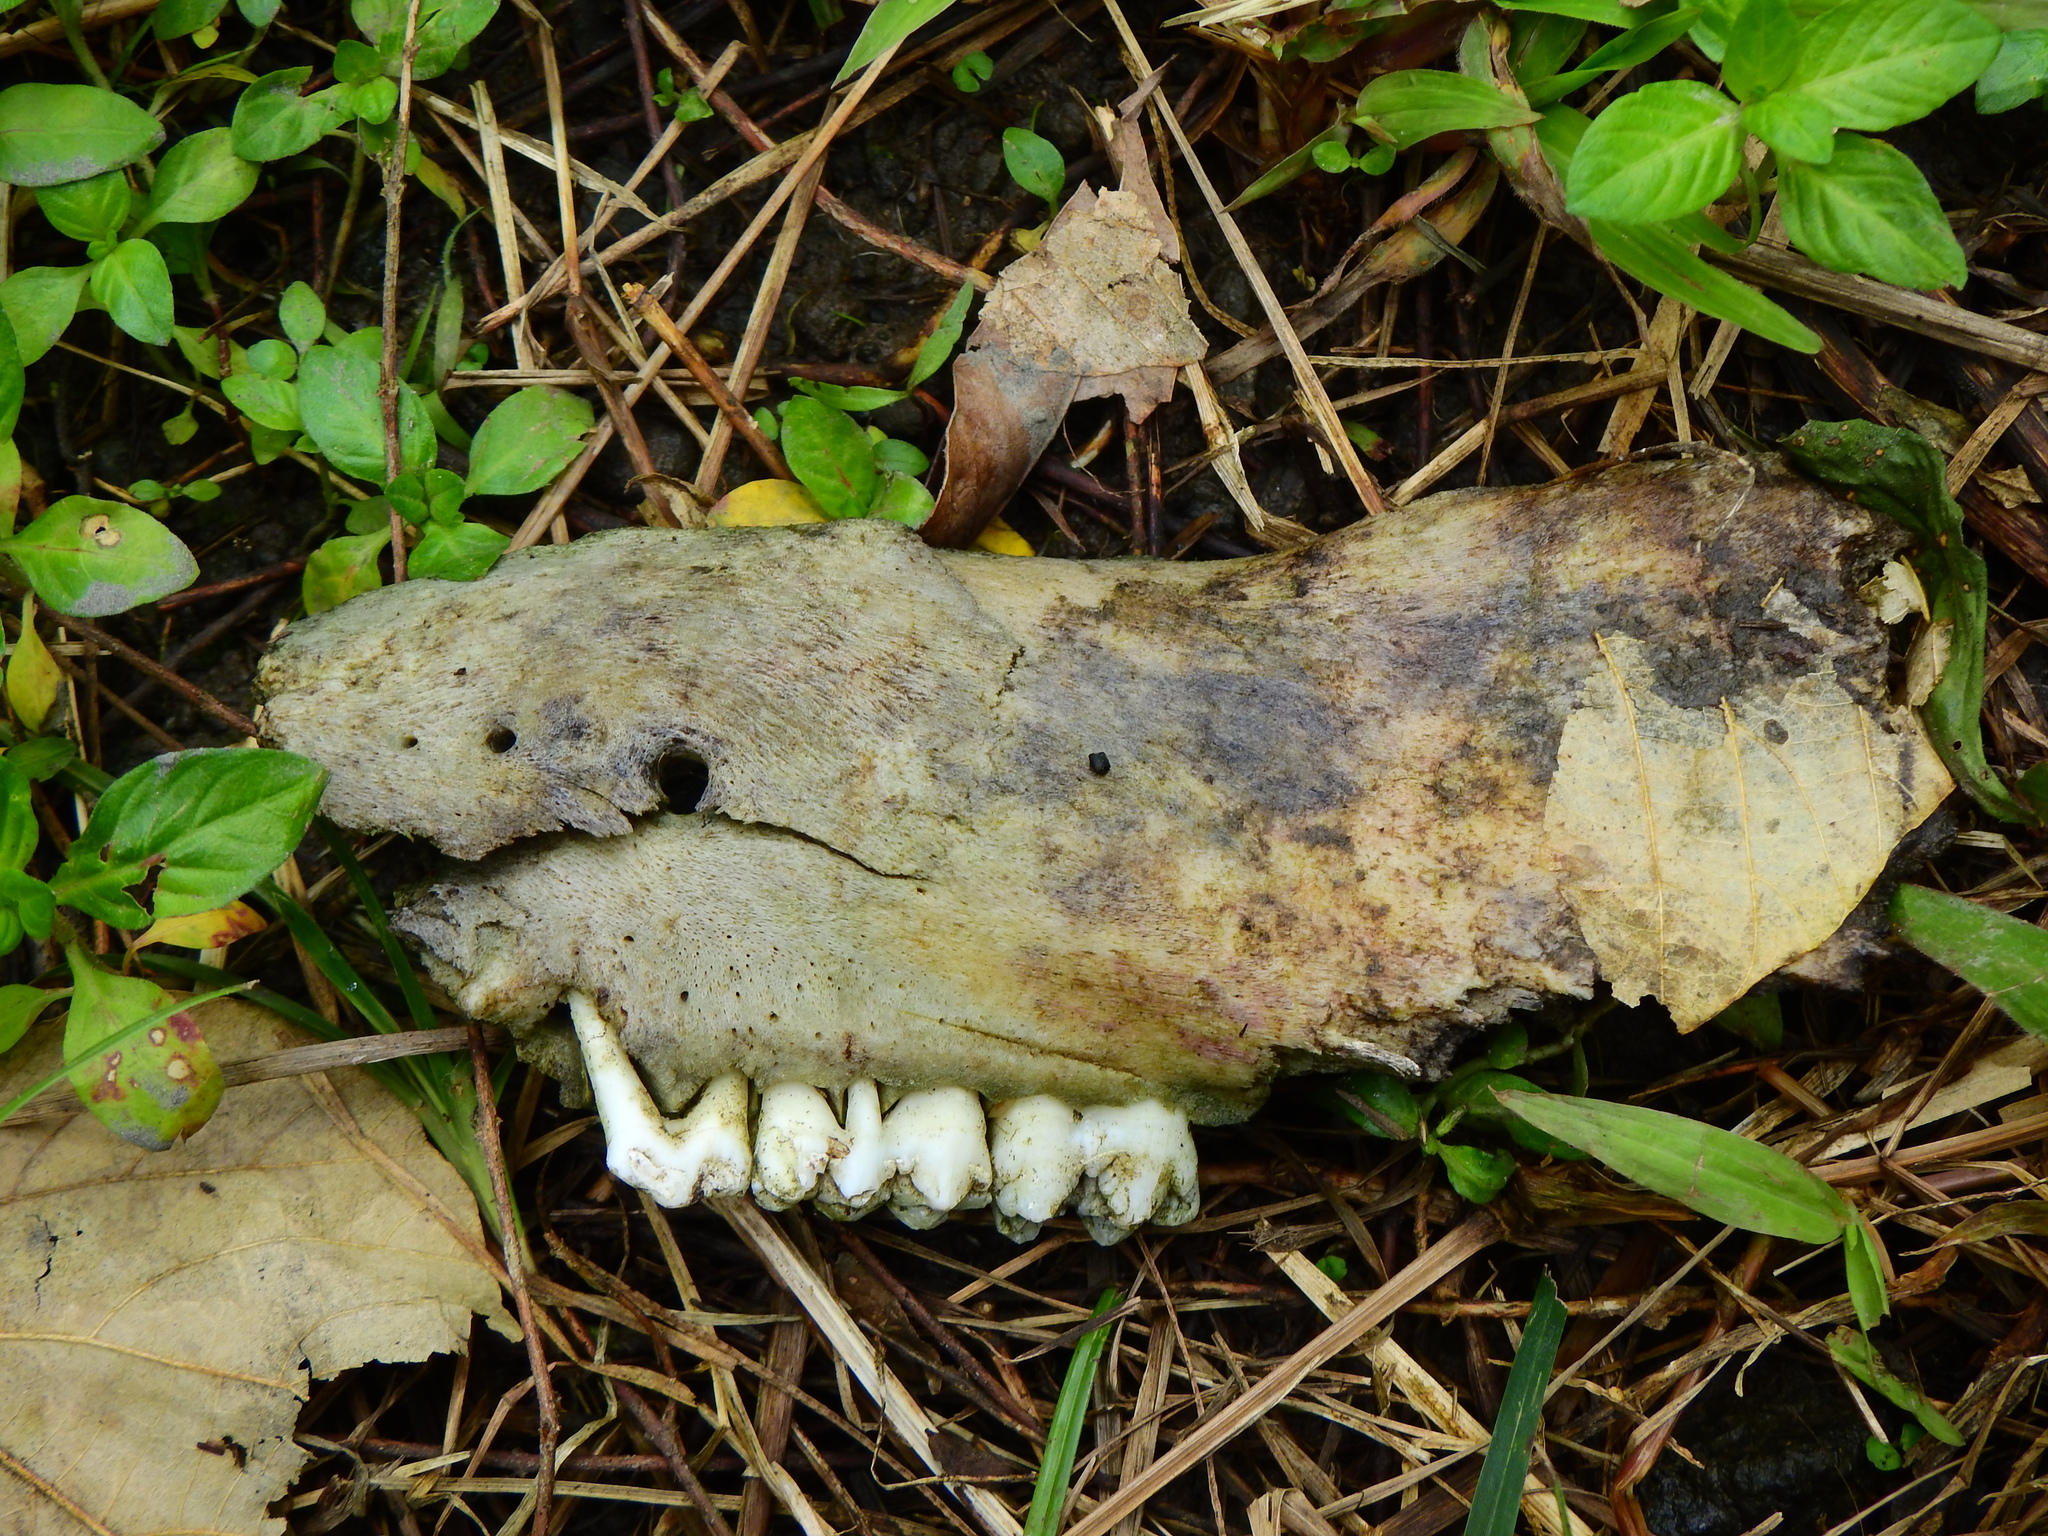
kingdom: Animalia
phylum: Chordata
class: Mammalia
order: Artiodactyla
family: Suidae
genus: Sus
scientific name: Sus scrofa
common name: Wild boar
